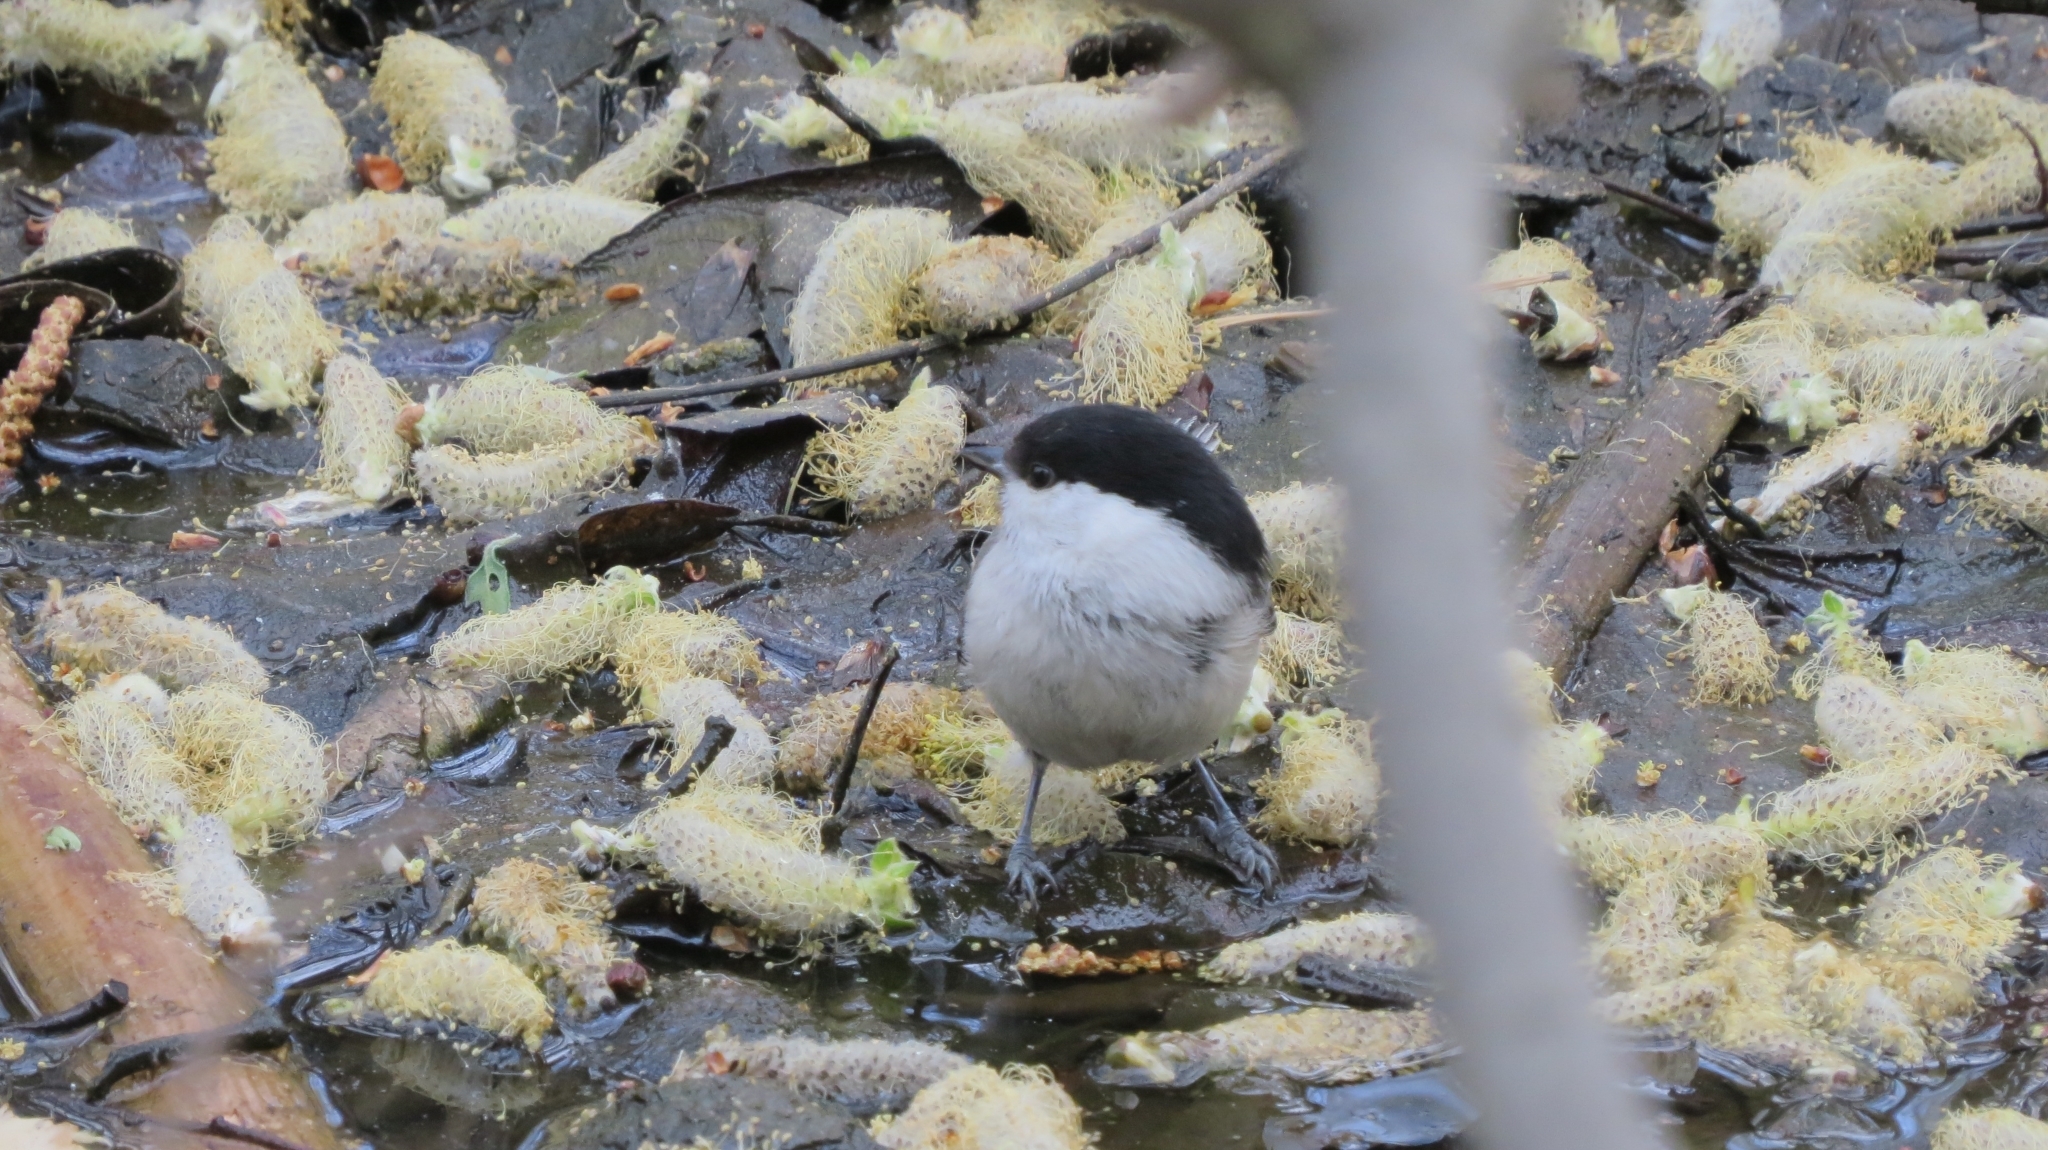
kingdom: Animalia
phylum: Chordata
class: Aves
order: Passeriformes
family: Paridae
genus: Poecile
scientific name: Poecile montanus
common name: Willow tit
